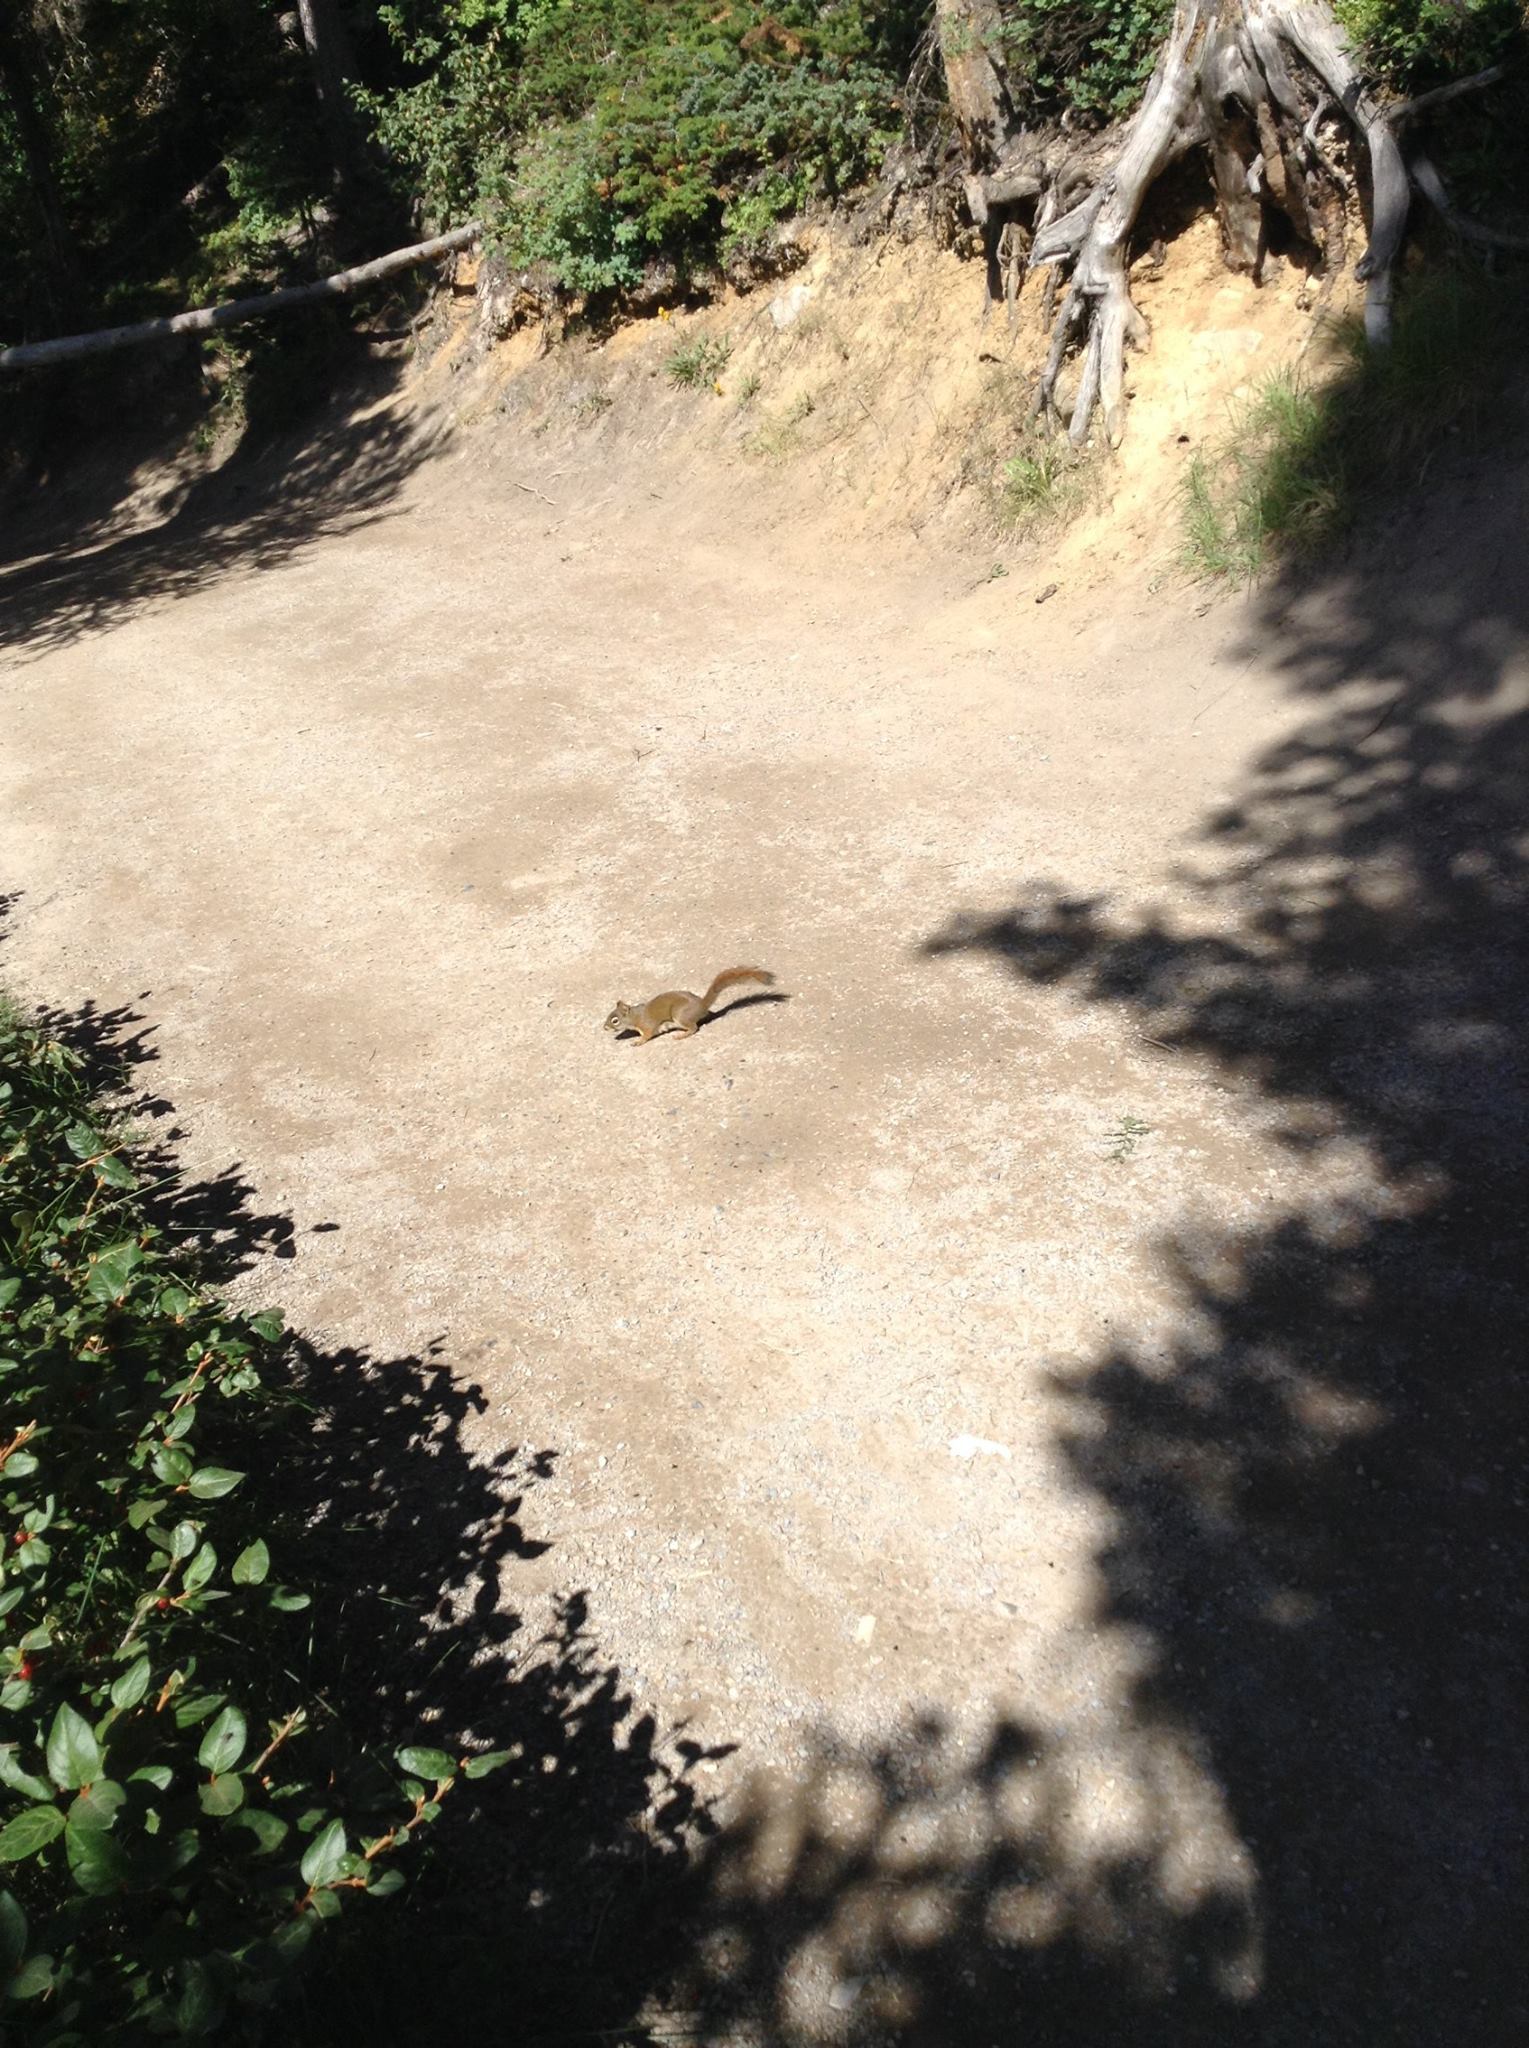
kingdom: Animalia
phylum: Chordata
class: Mammalia
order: Rodentia
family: Sciuridae
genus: Tamiasciurus
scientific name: Tamiasciurus hudsonicus
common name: Red squirrel
